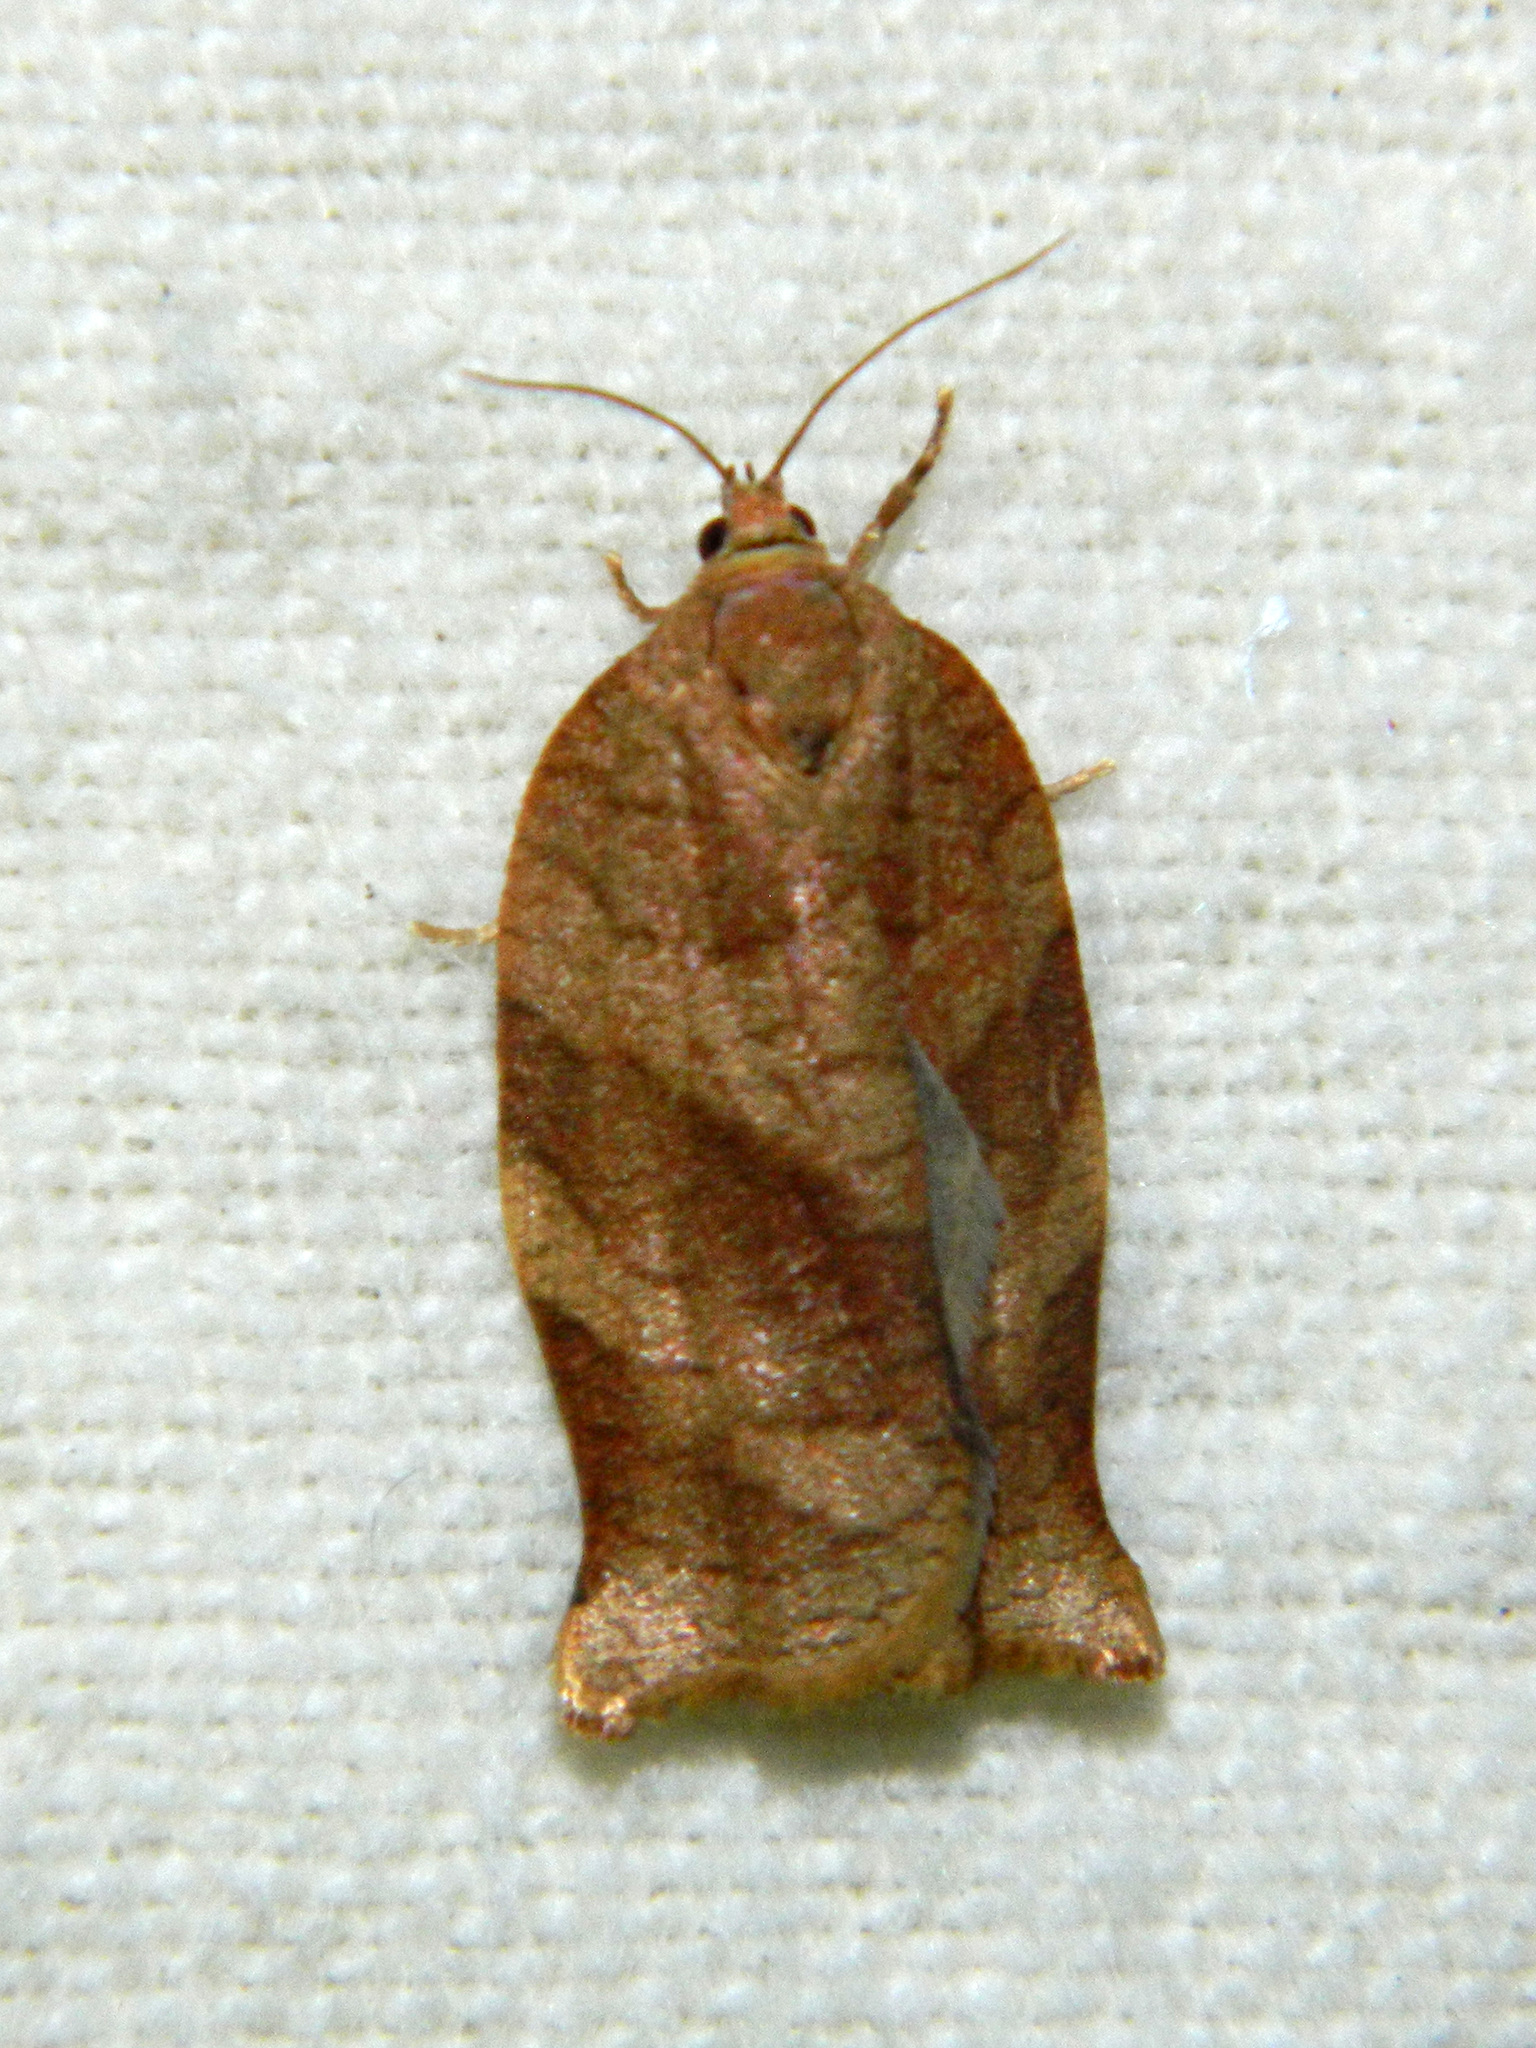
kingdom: Animalia
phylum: Arthropoda
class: Insecta
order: Lepidoptera
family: Tortricidae
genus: Choristoneura
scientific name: Choristoneura rosaceana
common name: Oblique-banded leafroller moth
